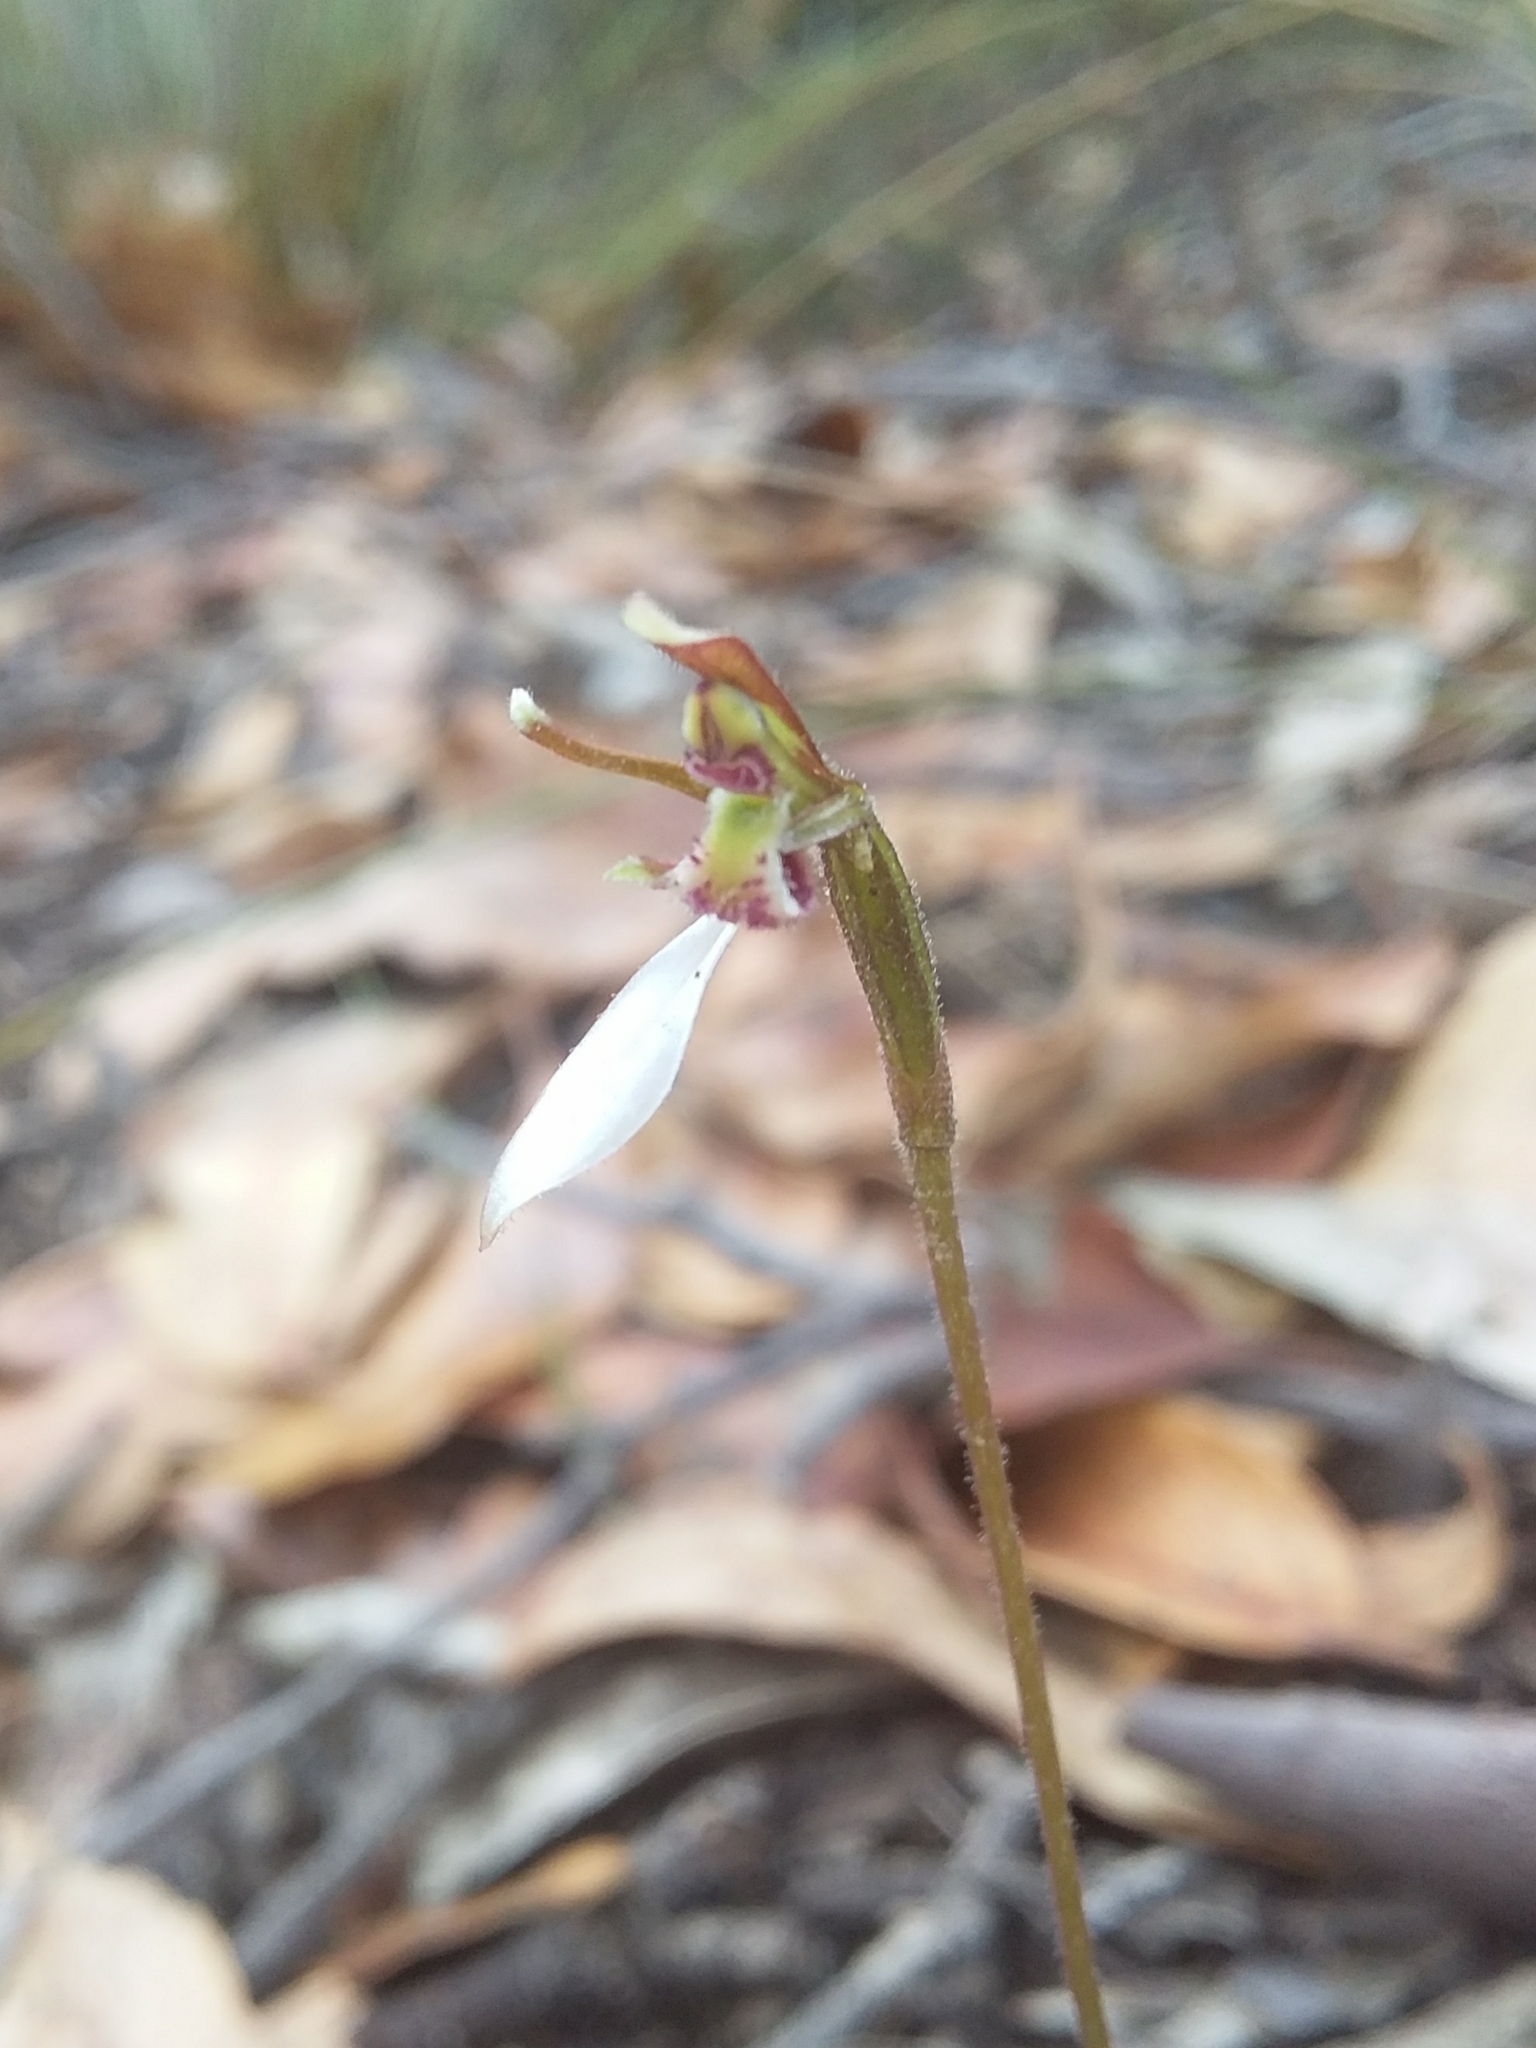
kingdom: Plantae
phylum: Tracheophyta
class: Liliopsida
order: Asparagales
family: Orchidaceae
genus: Eriochilus
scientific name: Eriochilus collinus
